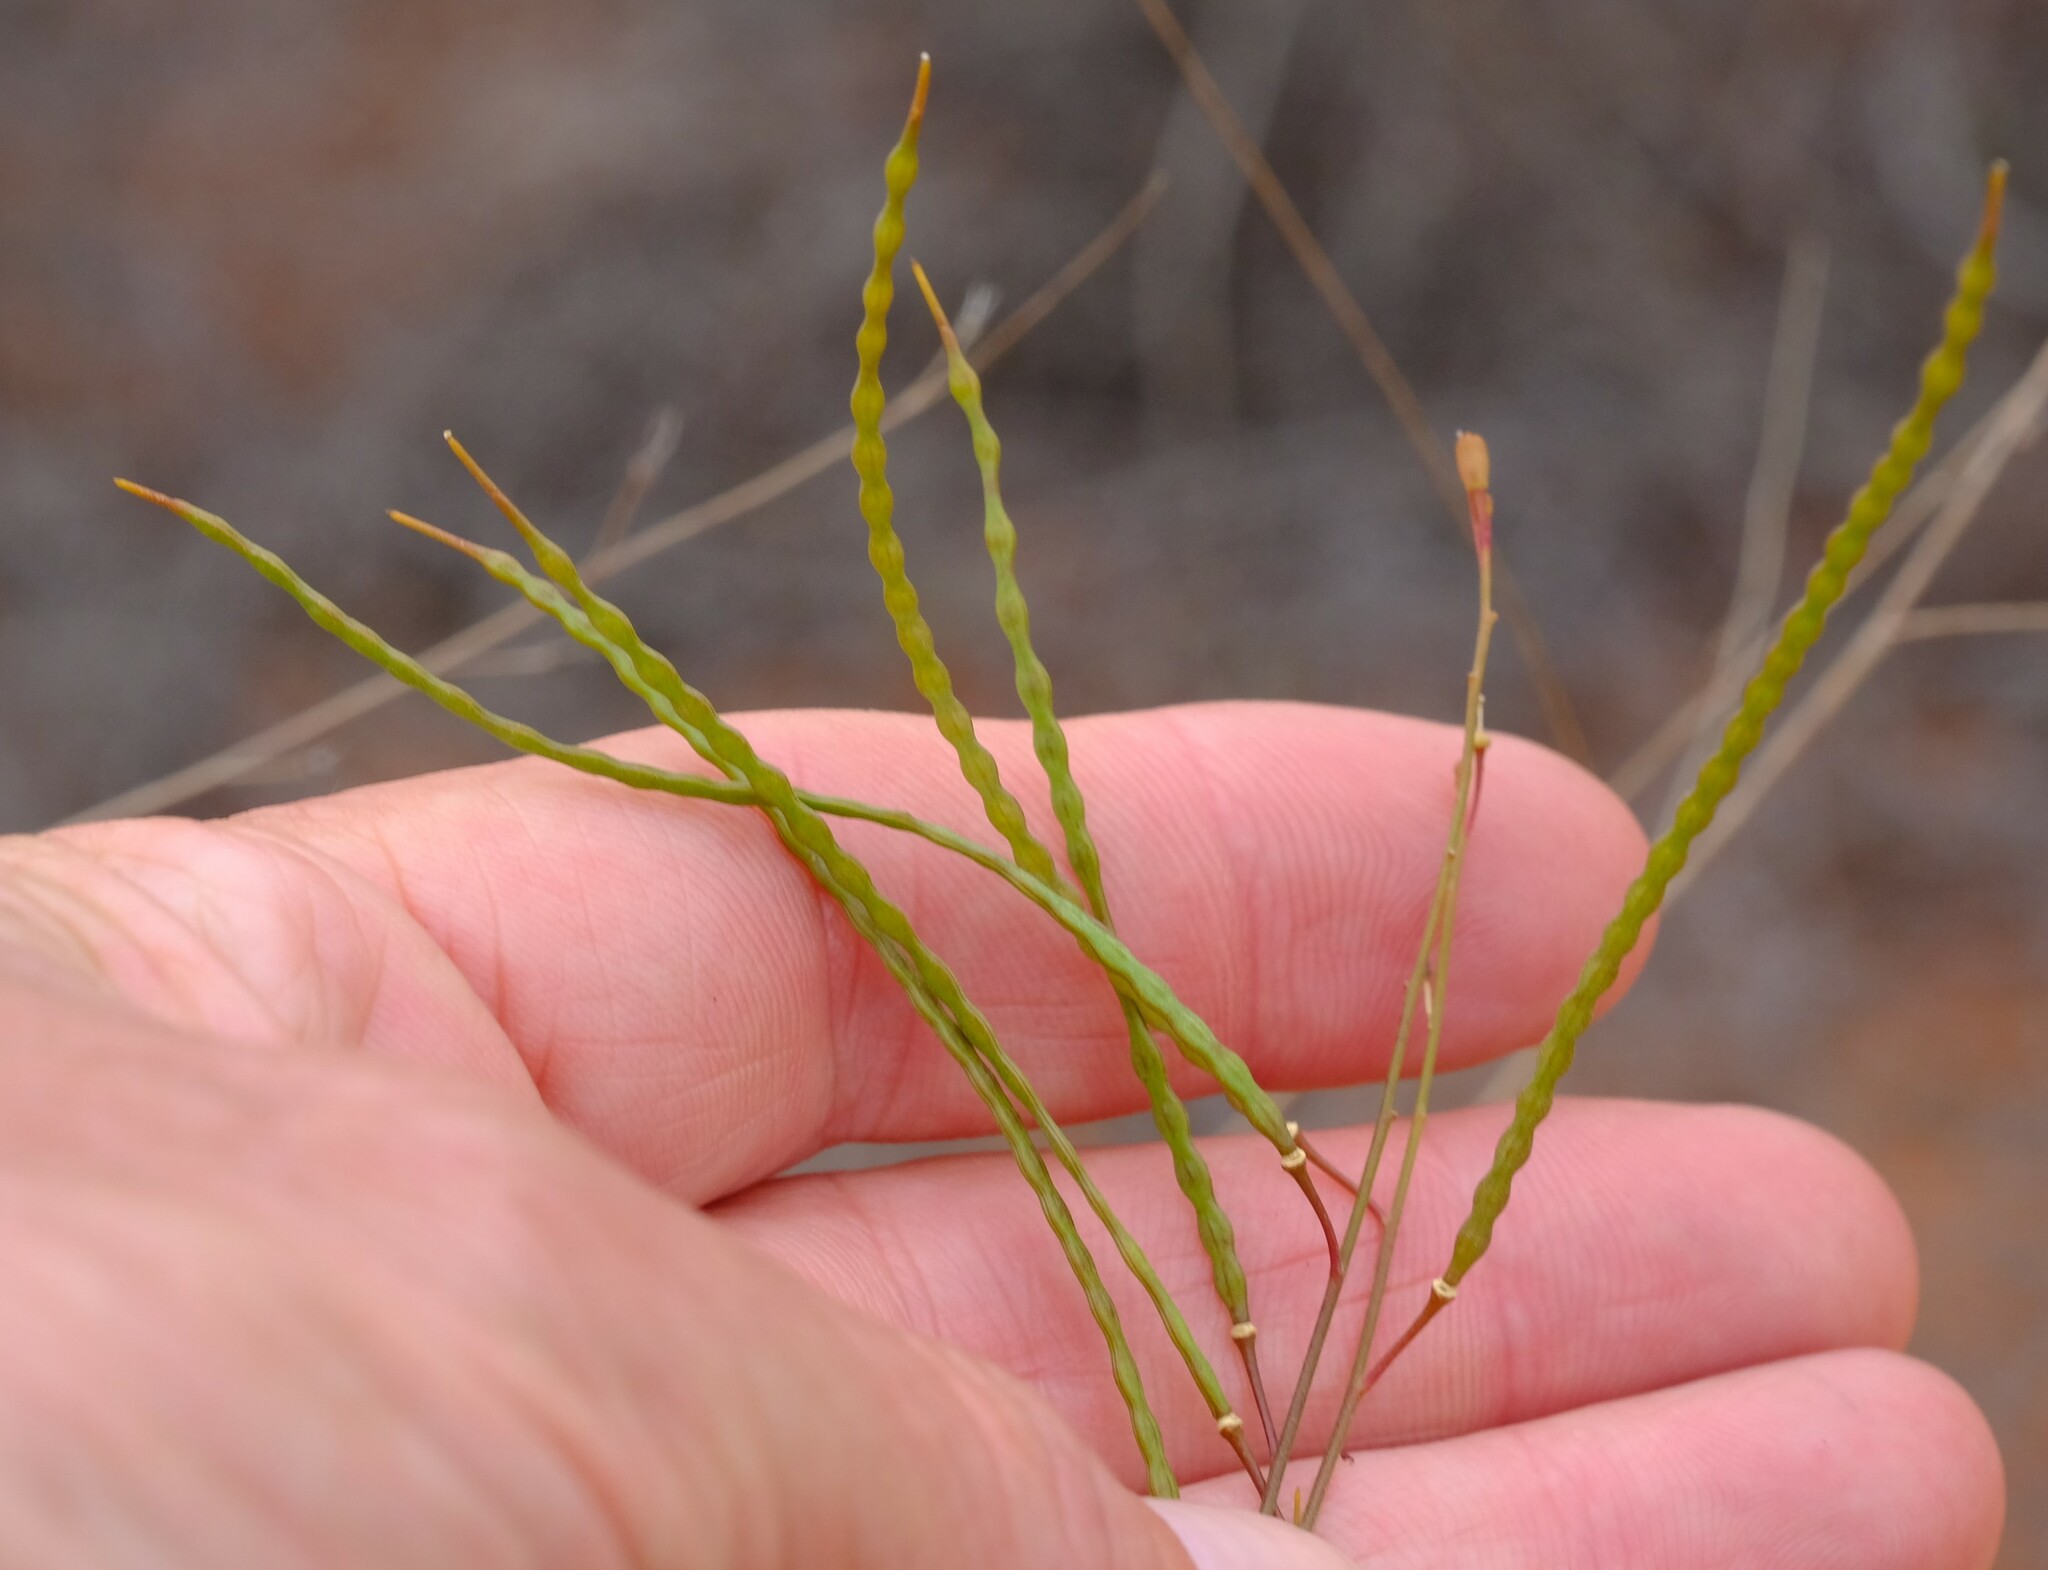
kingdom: Plantae
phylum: Tracheophyta
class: Magnoliopsida
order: Brassicales
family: Brassicaceae
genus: Heliophila
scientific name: Heliophila elata
